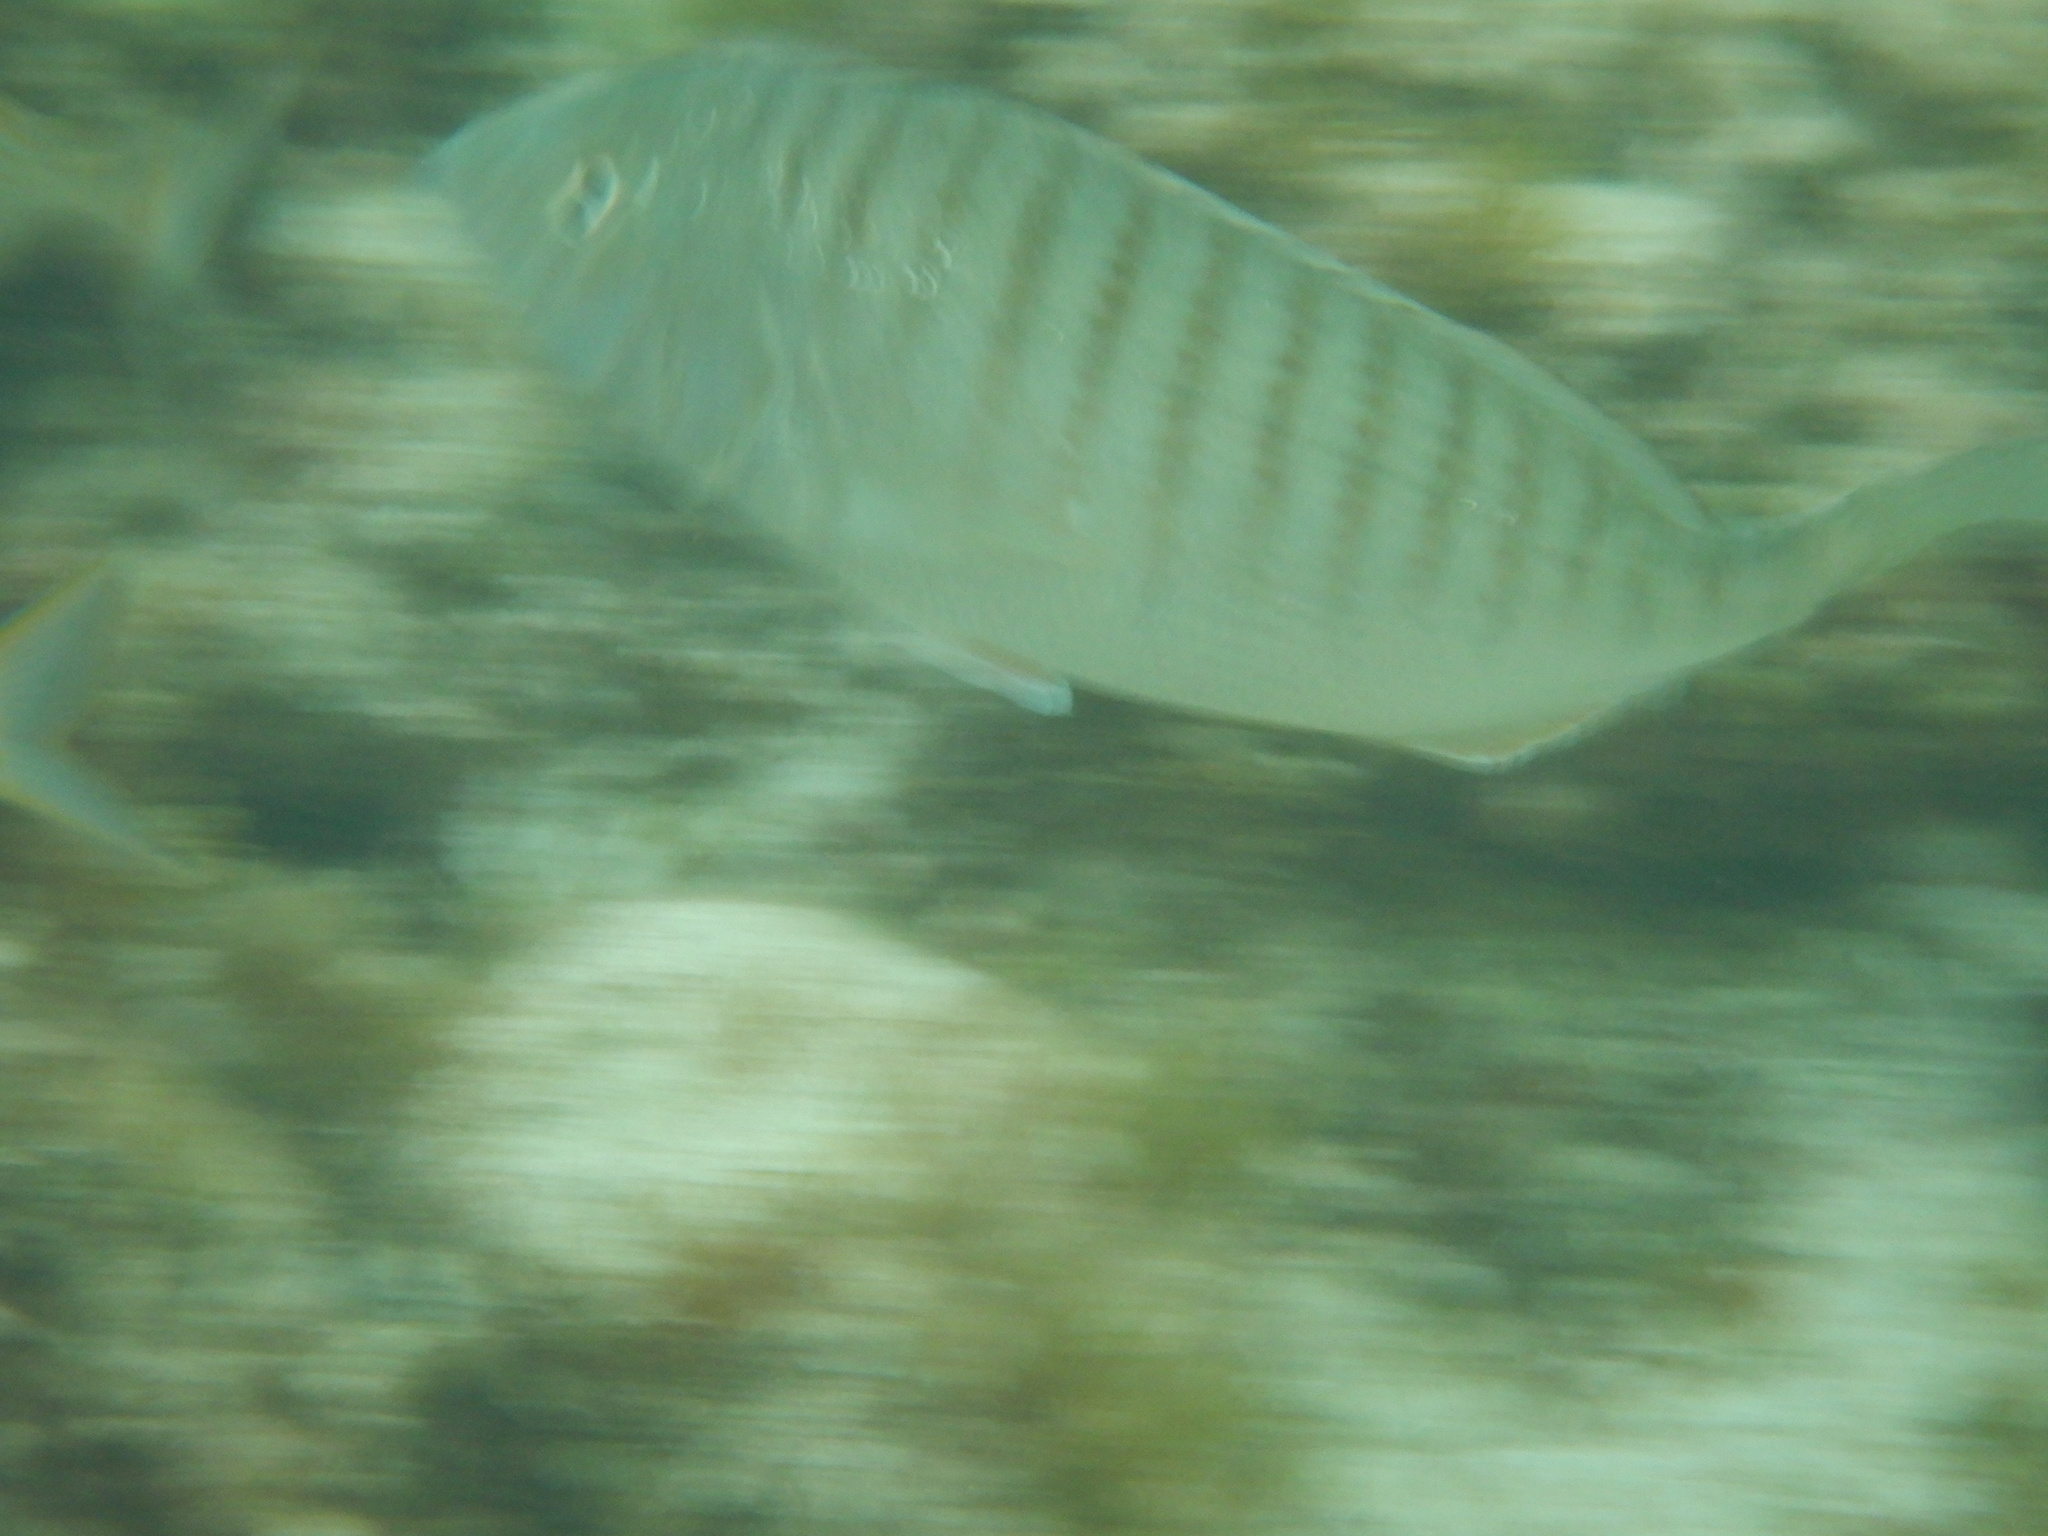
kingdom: Animalia
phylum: Chordata
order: Perciformes
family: Sparidae
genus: Lithognathus
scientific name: Lithognathus mormyrus
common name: Sand steenbras
